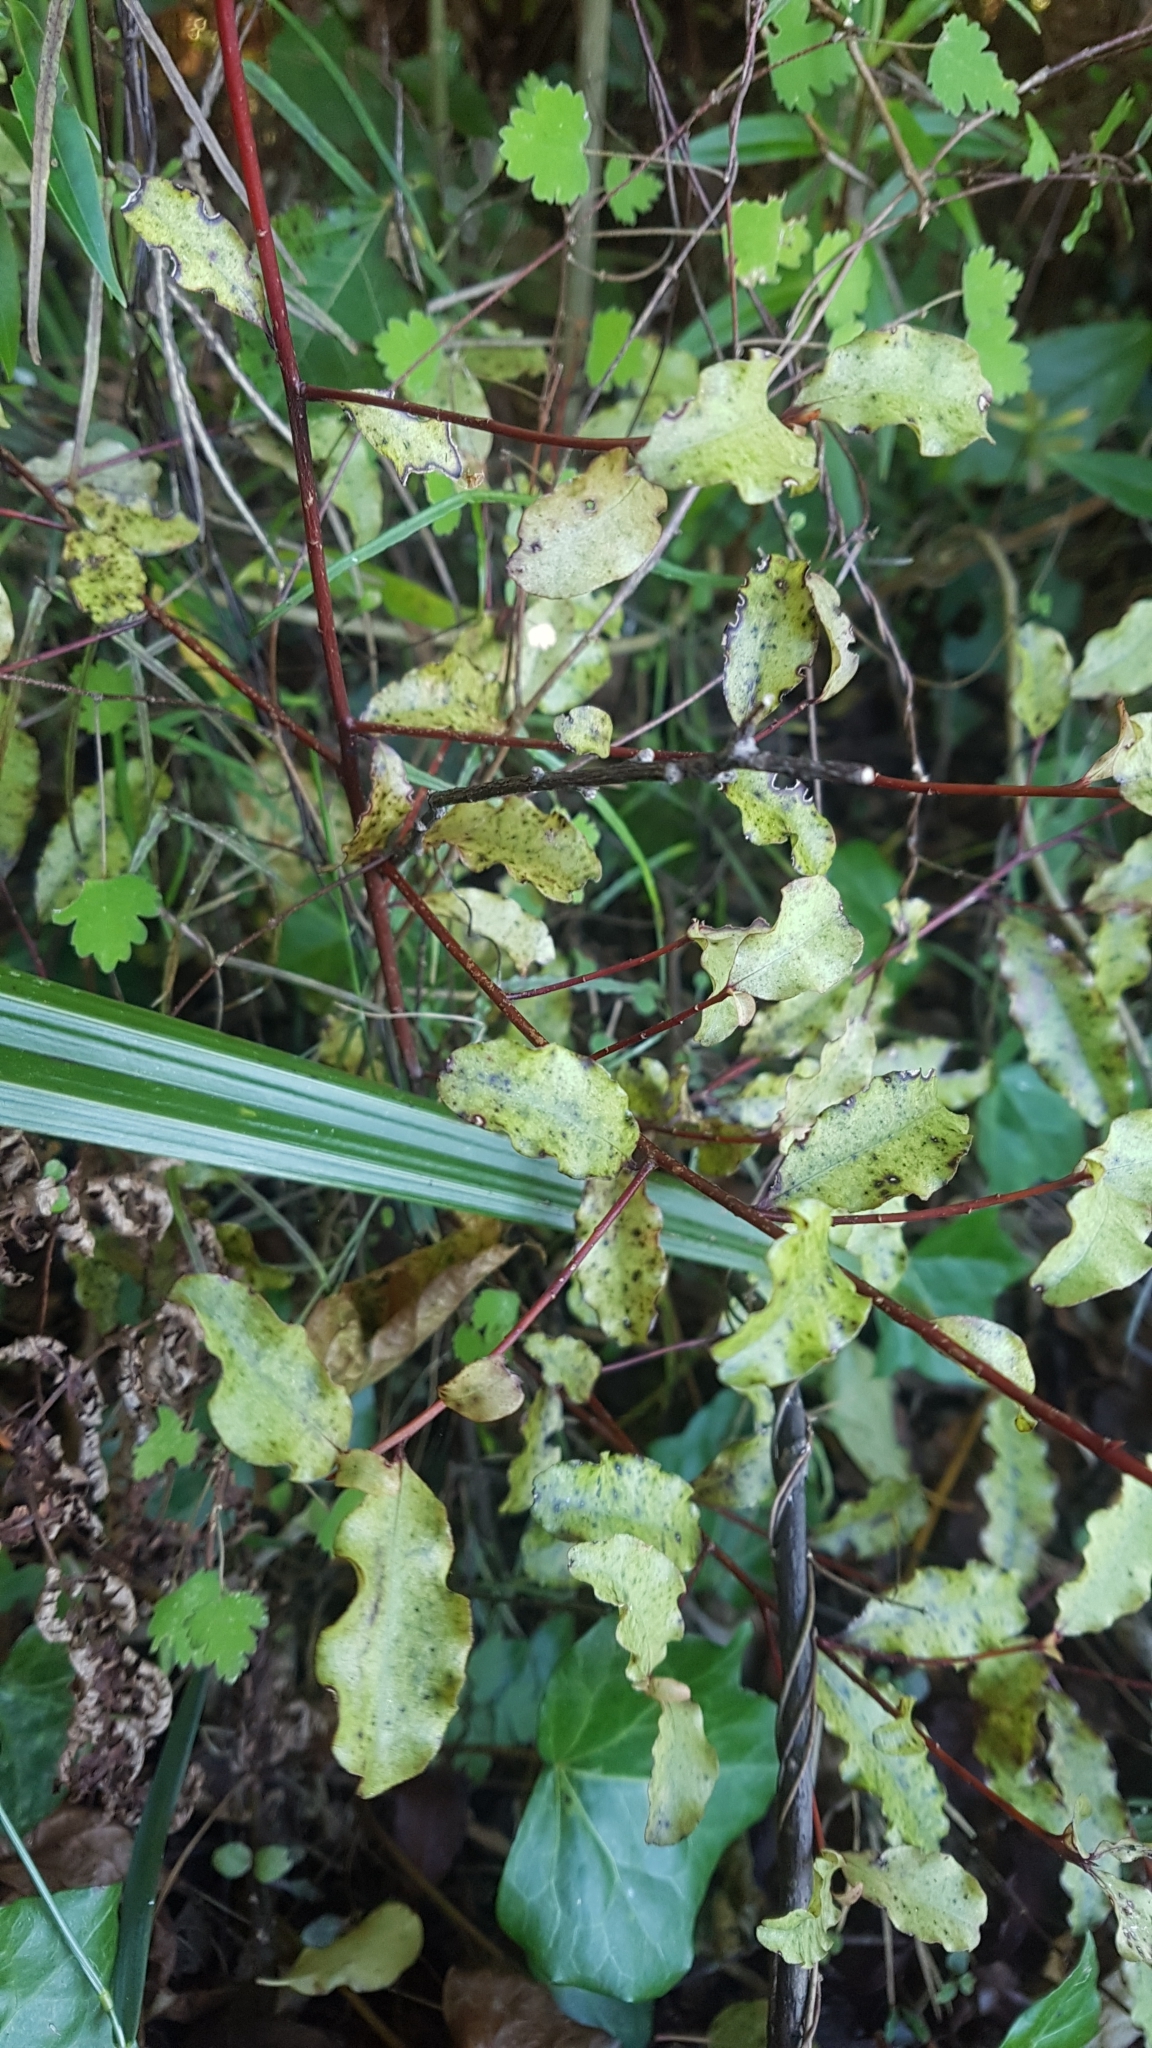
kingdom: Plantae
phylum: Tracheophyta
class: Magnoliopsida
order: Ericales
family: Primulaceae
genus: Myrsine
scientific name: Myrsine australis
